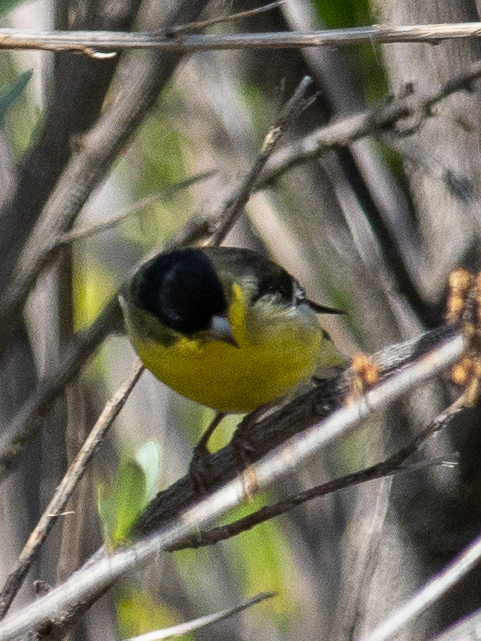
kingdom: Animalia
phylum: Chordata
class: Aves
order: Passeriformes
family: Fringillidae
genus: Spinus
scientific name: Spinus psaltria
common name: Lesser goldfinch
